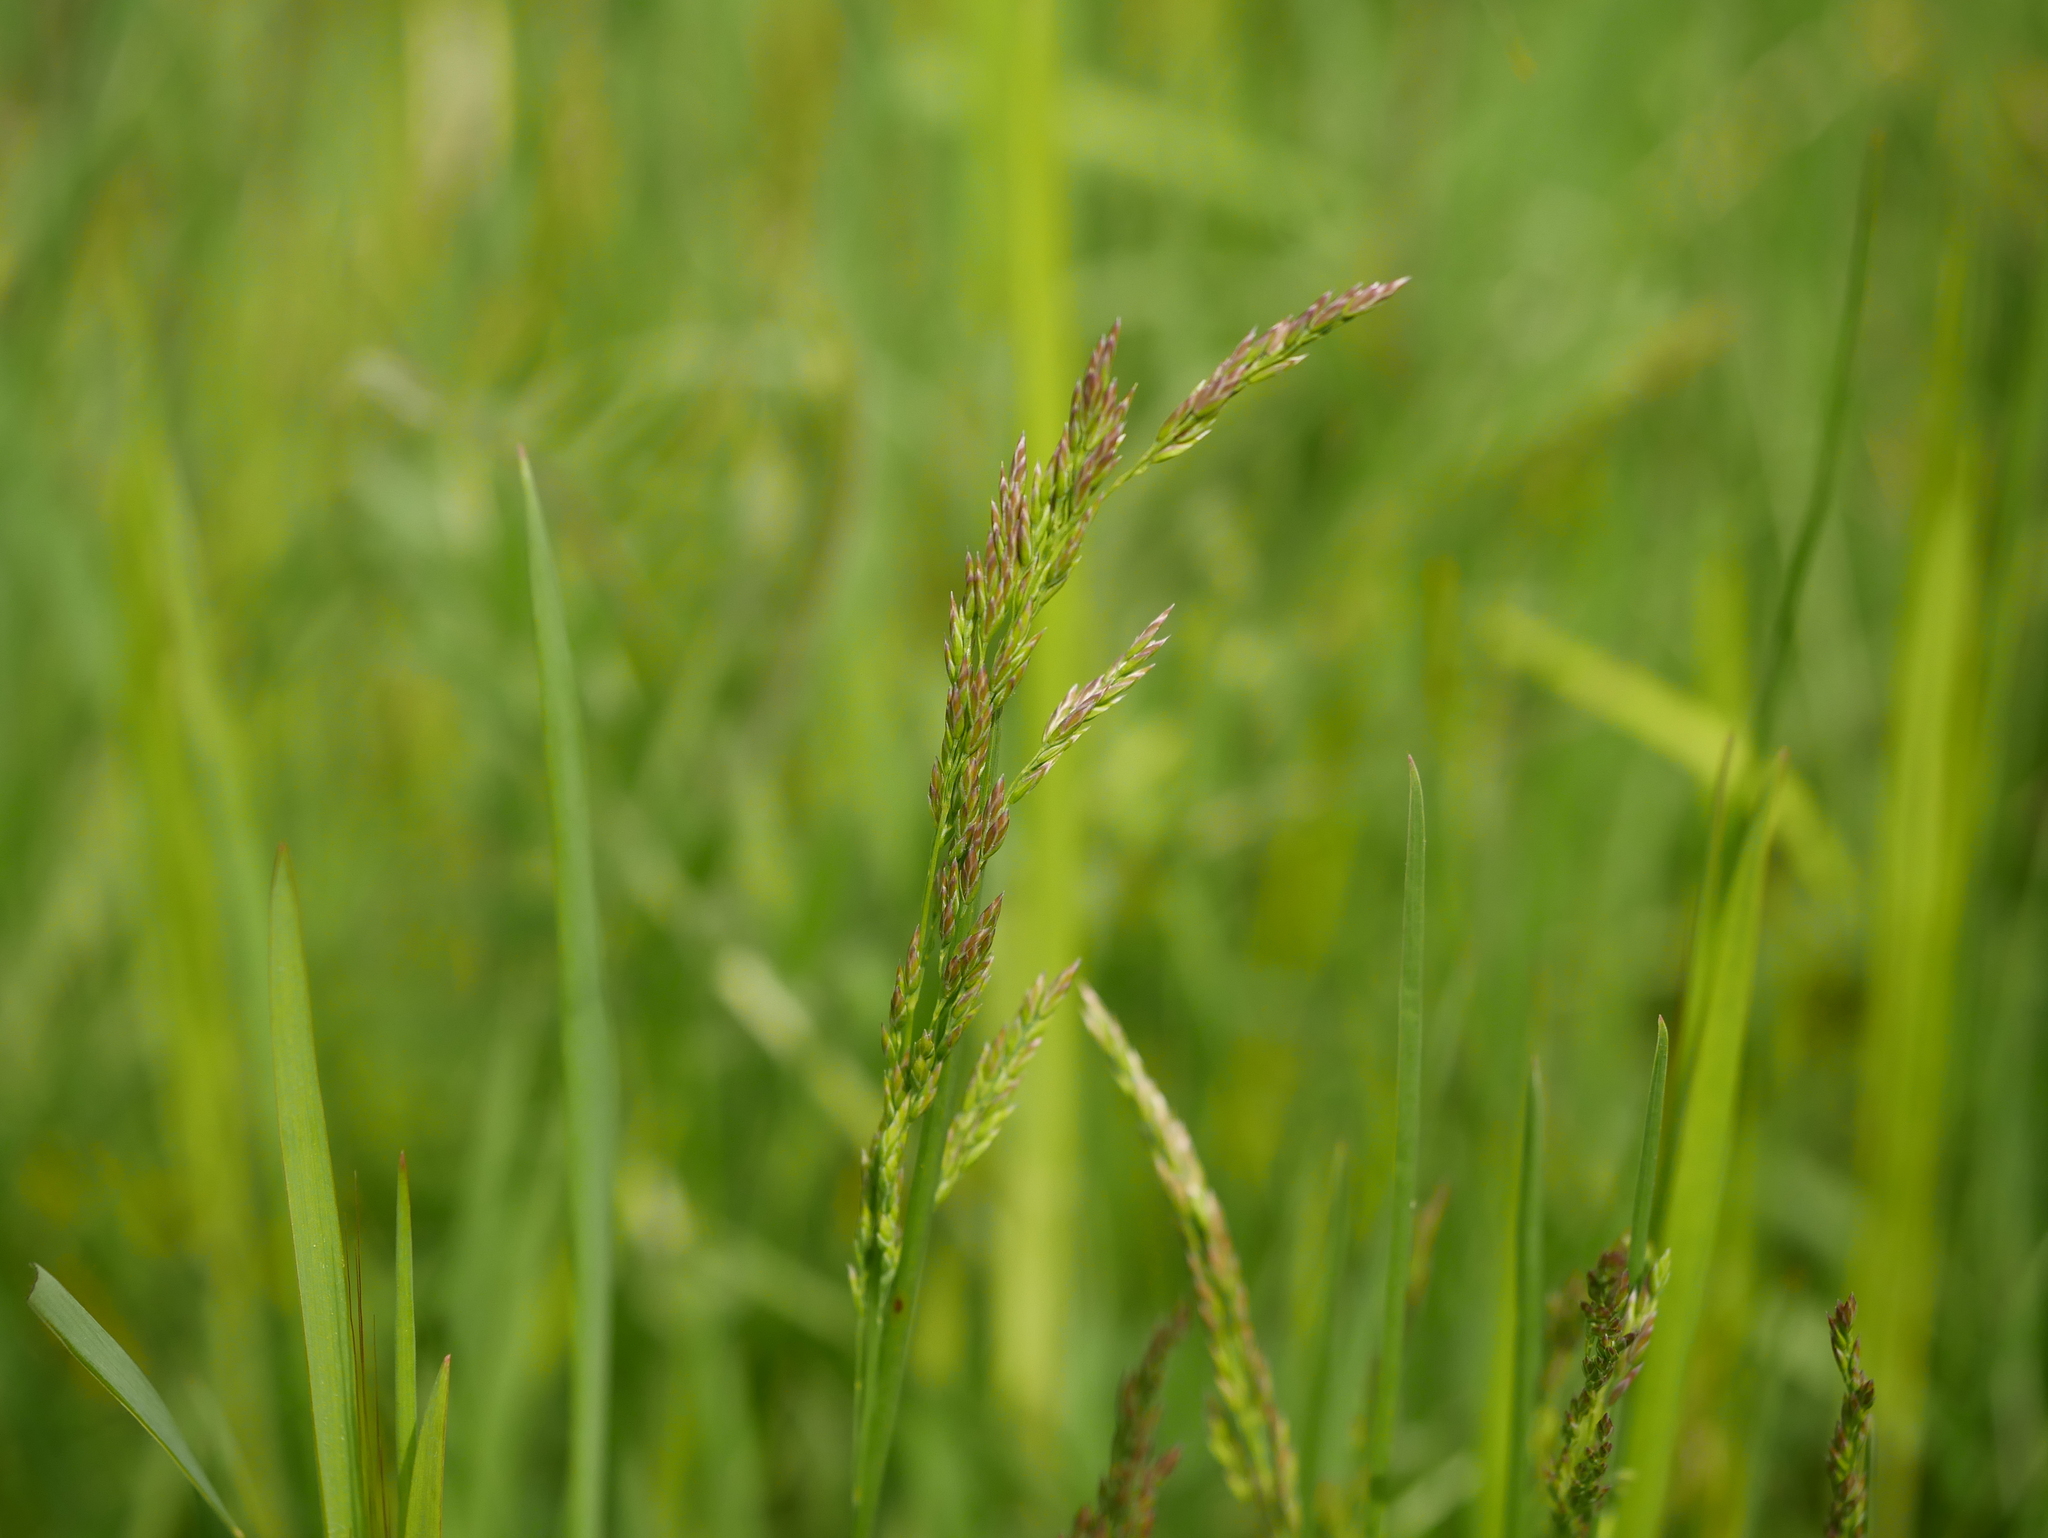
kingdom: Plantae
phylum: Tracheophyta
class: Liliopsida
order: Poales
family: Poaceae
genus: Poa
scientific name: Poa pratensis
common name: Kentucky bluegrass
